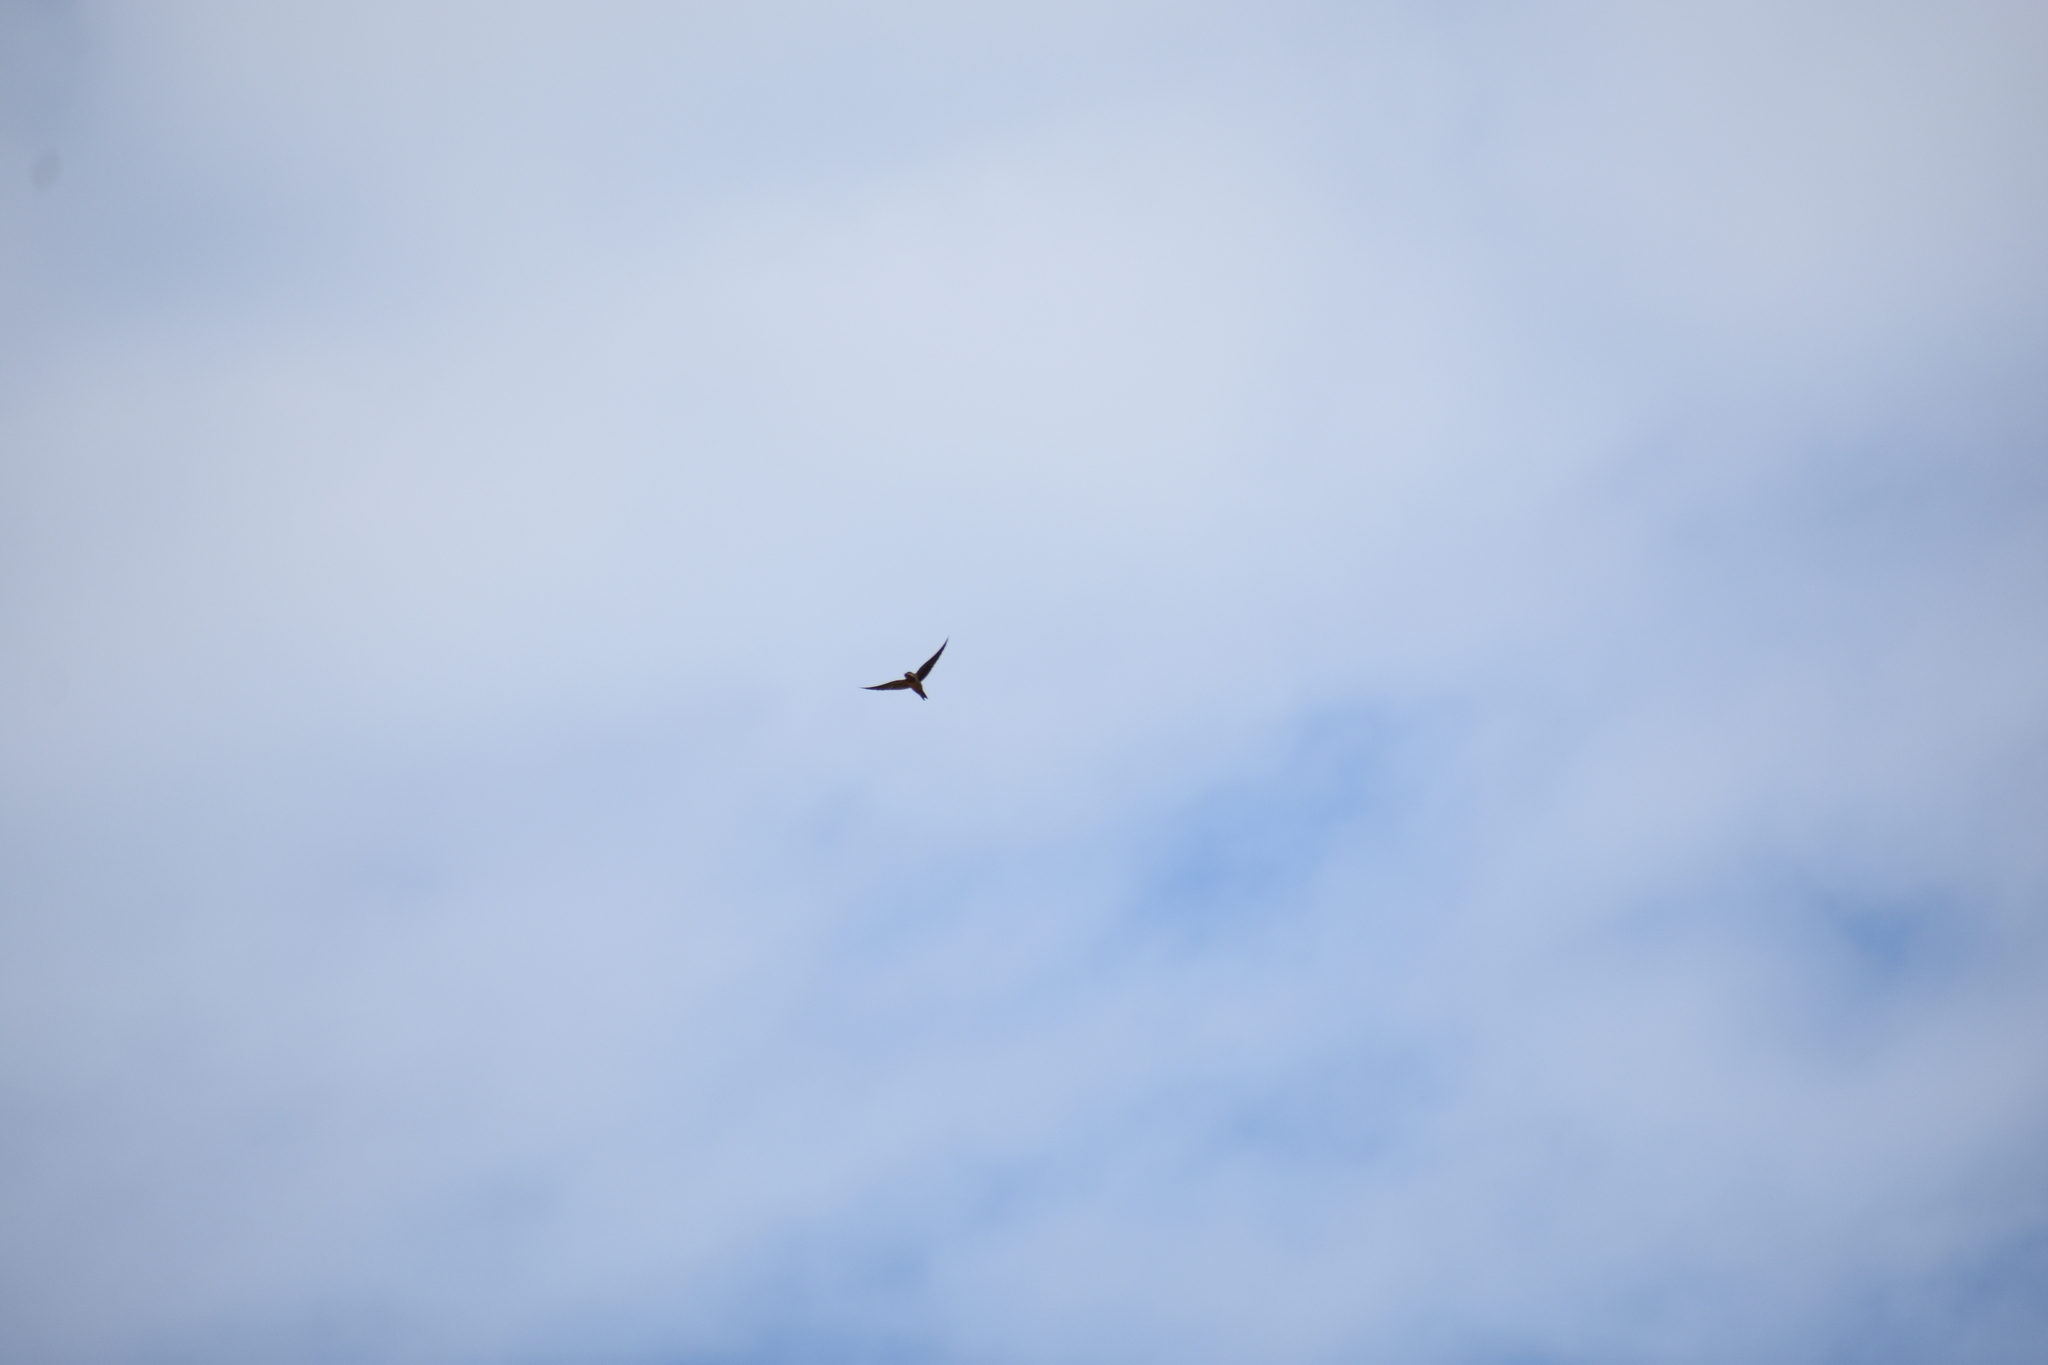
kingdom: Animalia
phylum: Chordata
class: Aves
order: Passeriformes
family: Hirundinidae
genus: Hirundo
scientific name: Hirundo rustica
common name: Barn swallow
